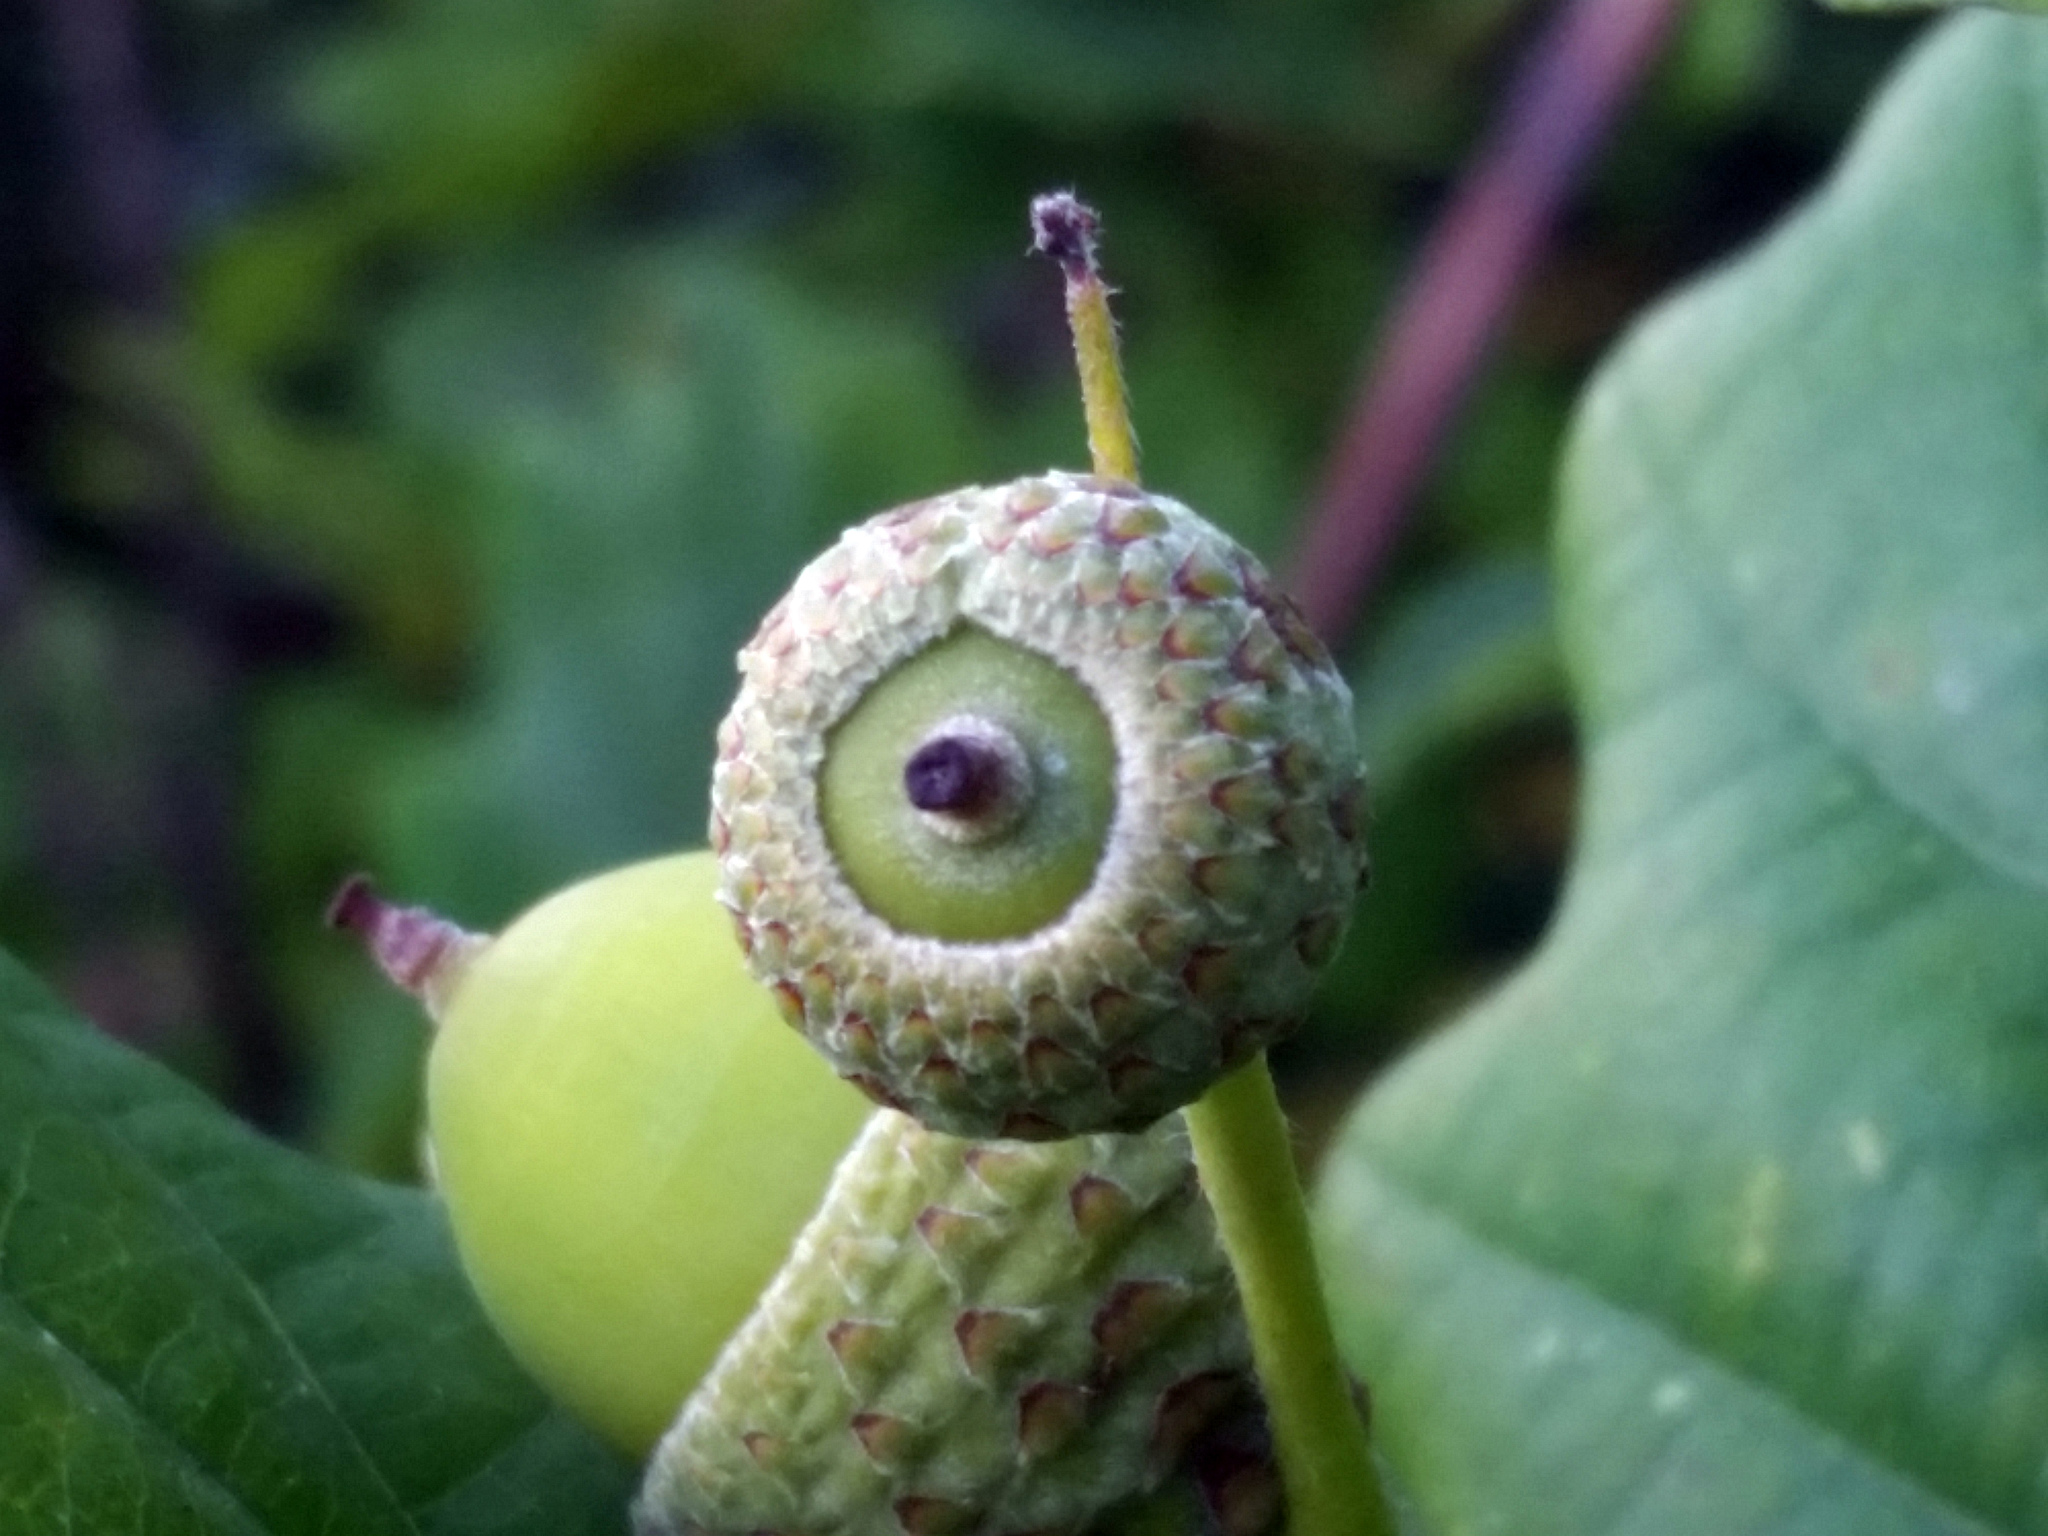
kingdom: Plantae
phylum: Tracheophyta
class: Magnoliopsida
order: Fagales
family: Fagaceae
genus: Quercus
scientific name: Quercus robur
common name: Pedunculate oak
